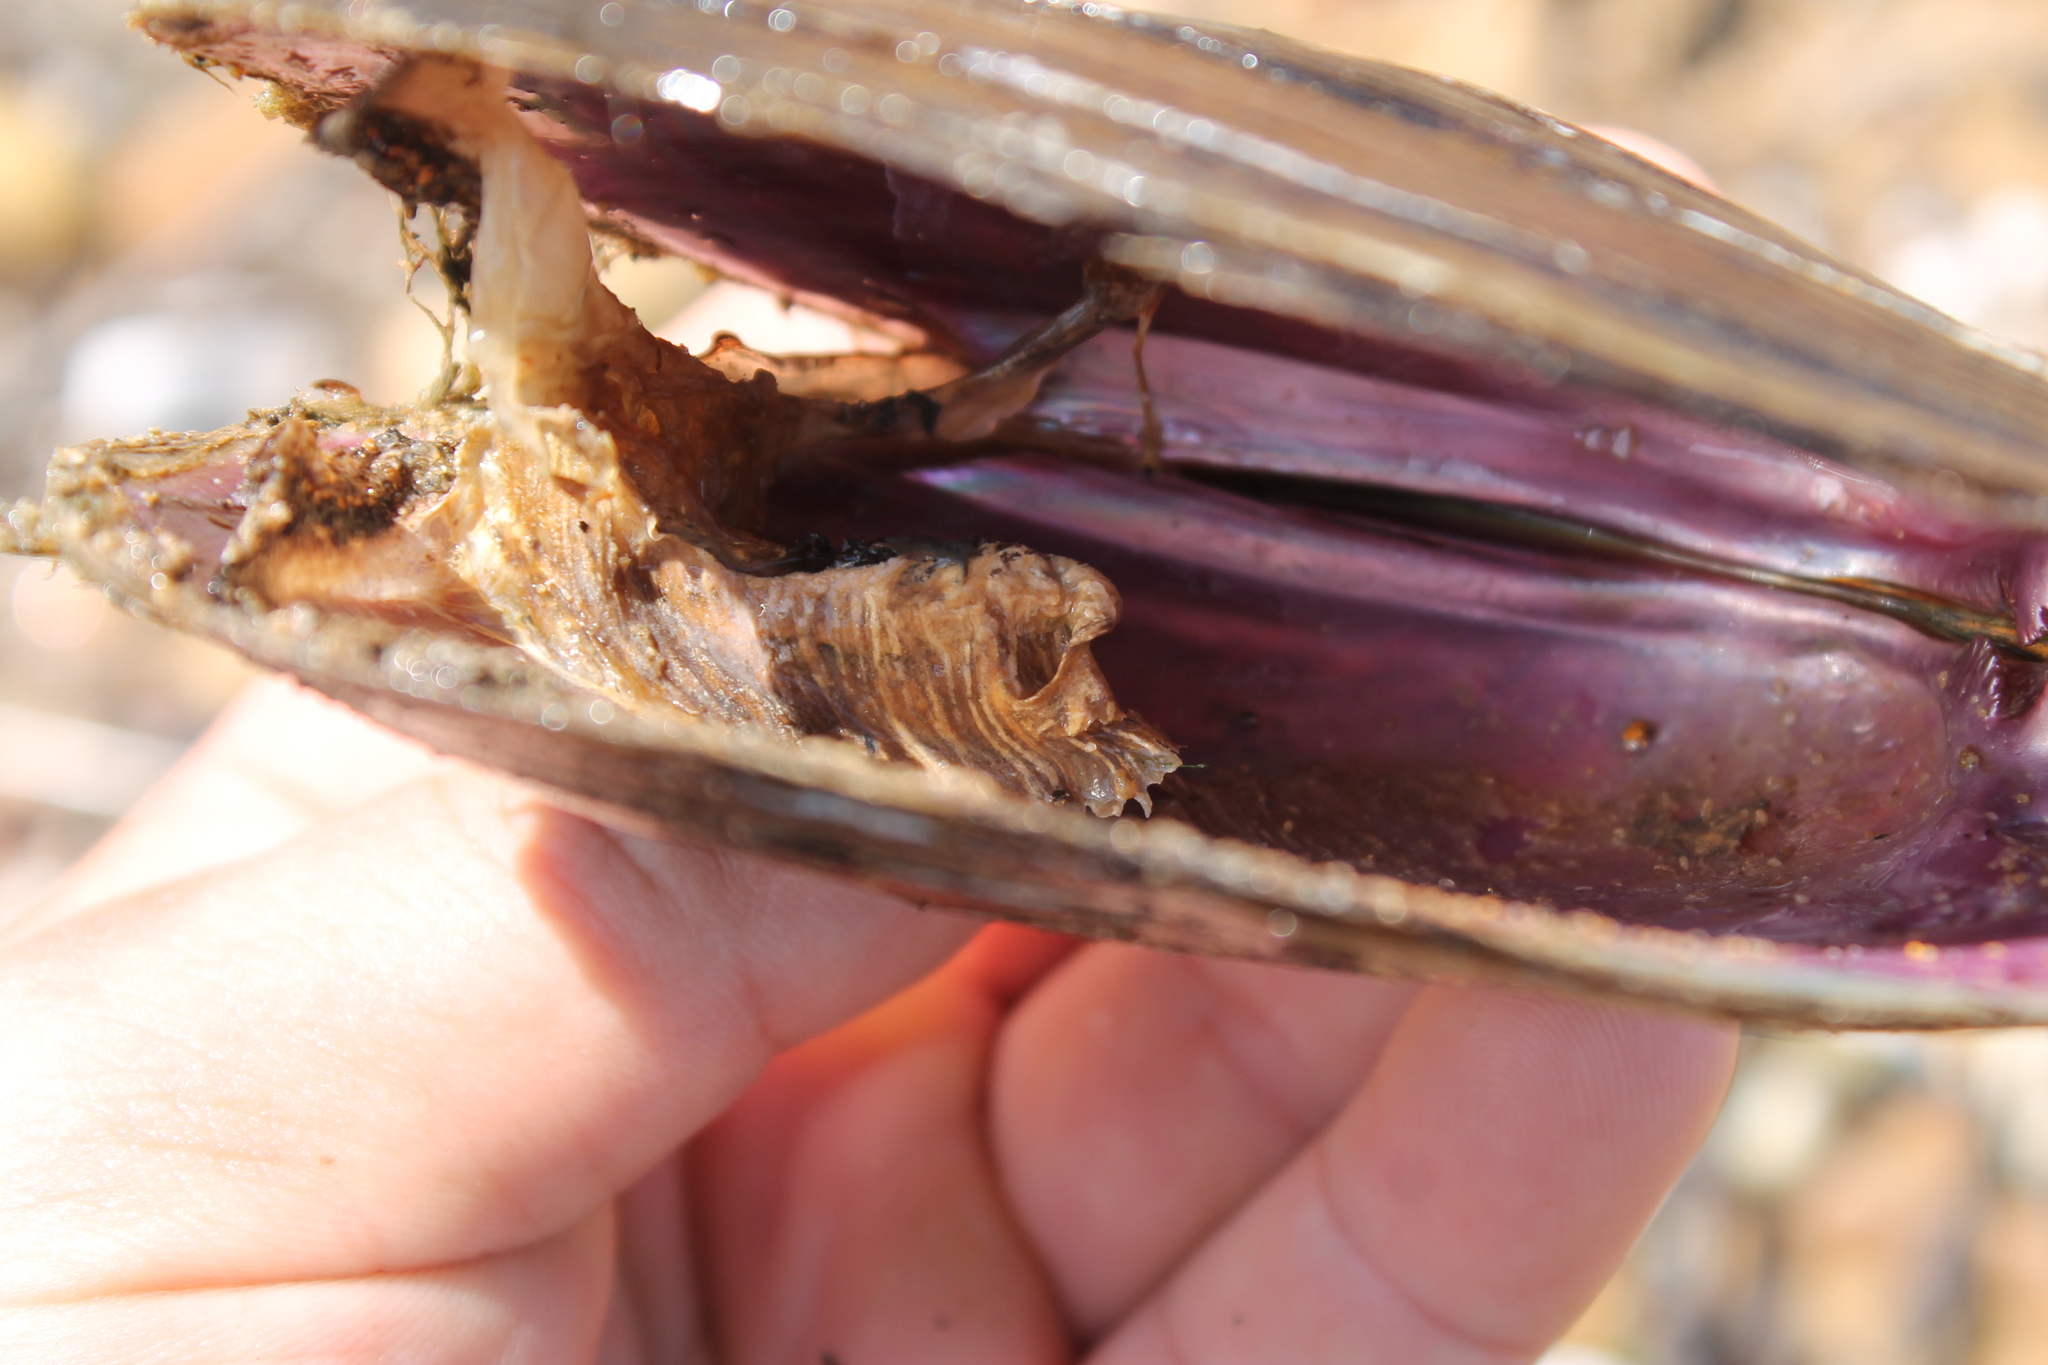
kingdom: Animalia
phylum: Mollusca
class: Bivalvia
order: Unionida
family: Unionidae
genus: Potamilus
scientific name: Potamilus alatus
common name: Pink heelsplitter
